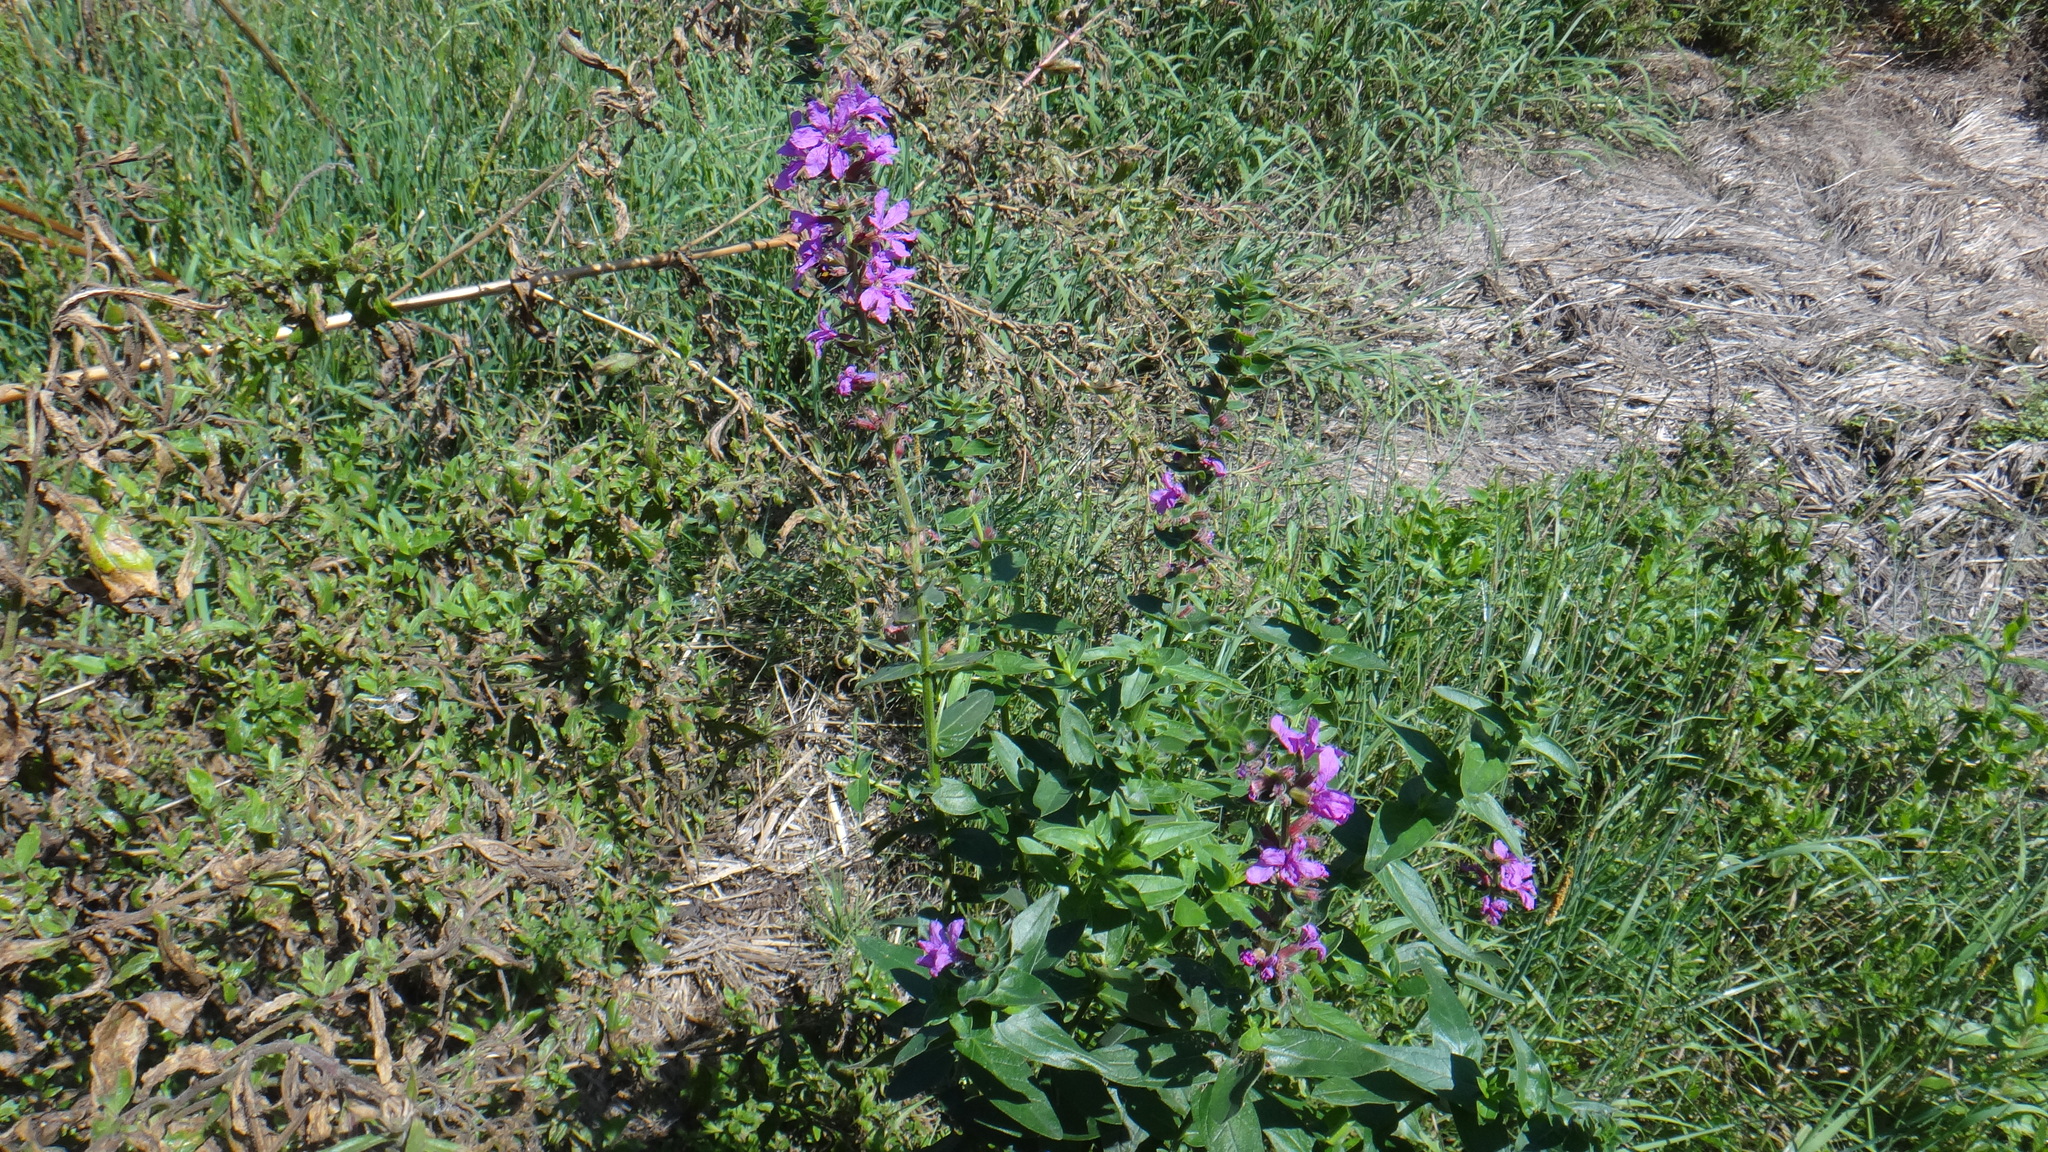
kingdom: Plantae
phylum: Tracheophyta
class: Magnoliopsida
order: Myrtales
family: Lythraceae
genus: Lythrum
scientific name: Lythrum salicaria
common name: Purple loosestrife
